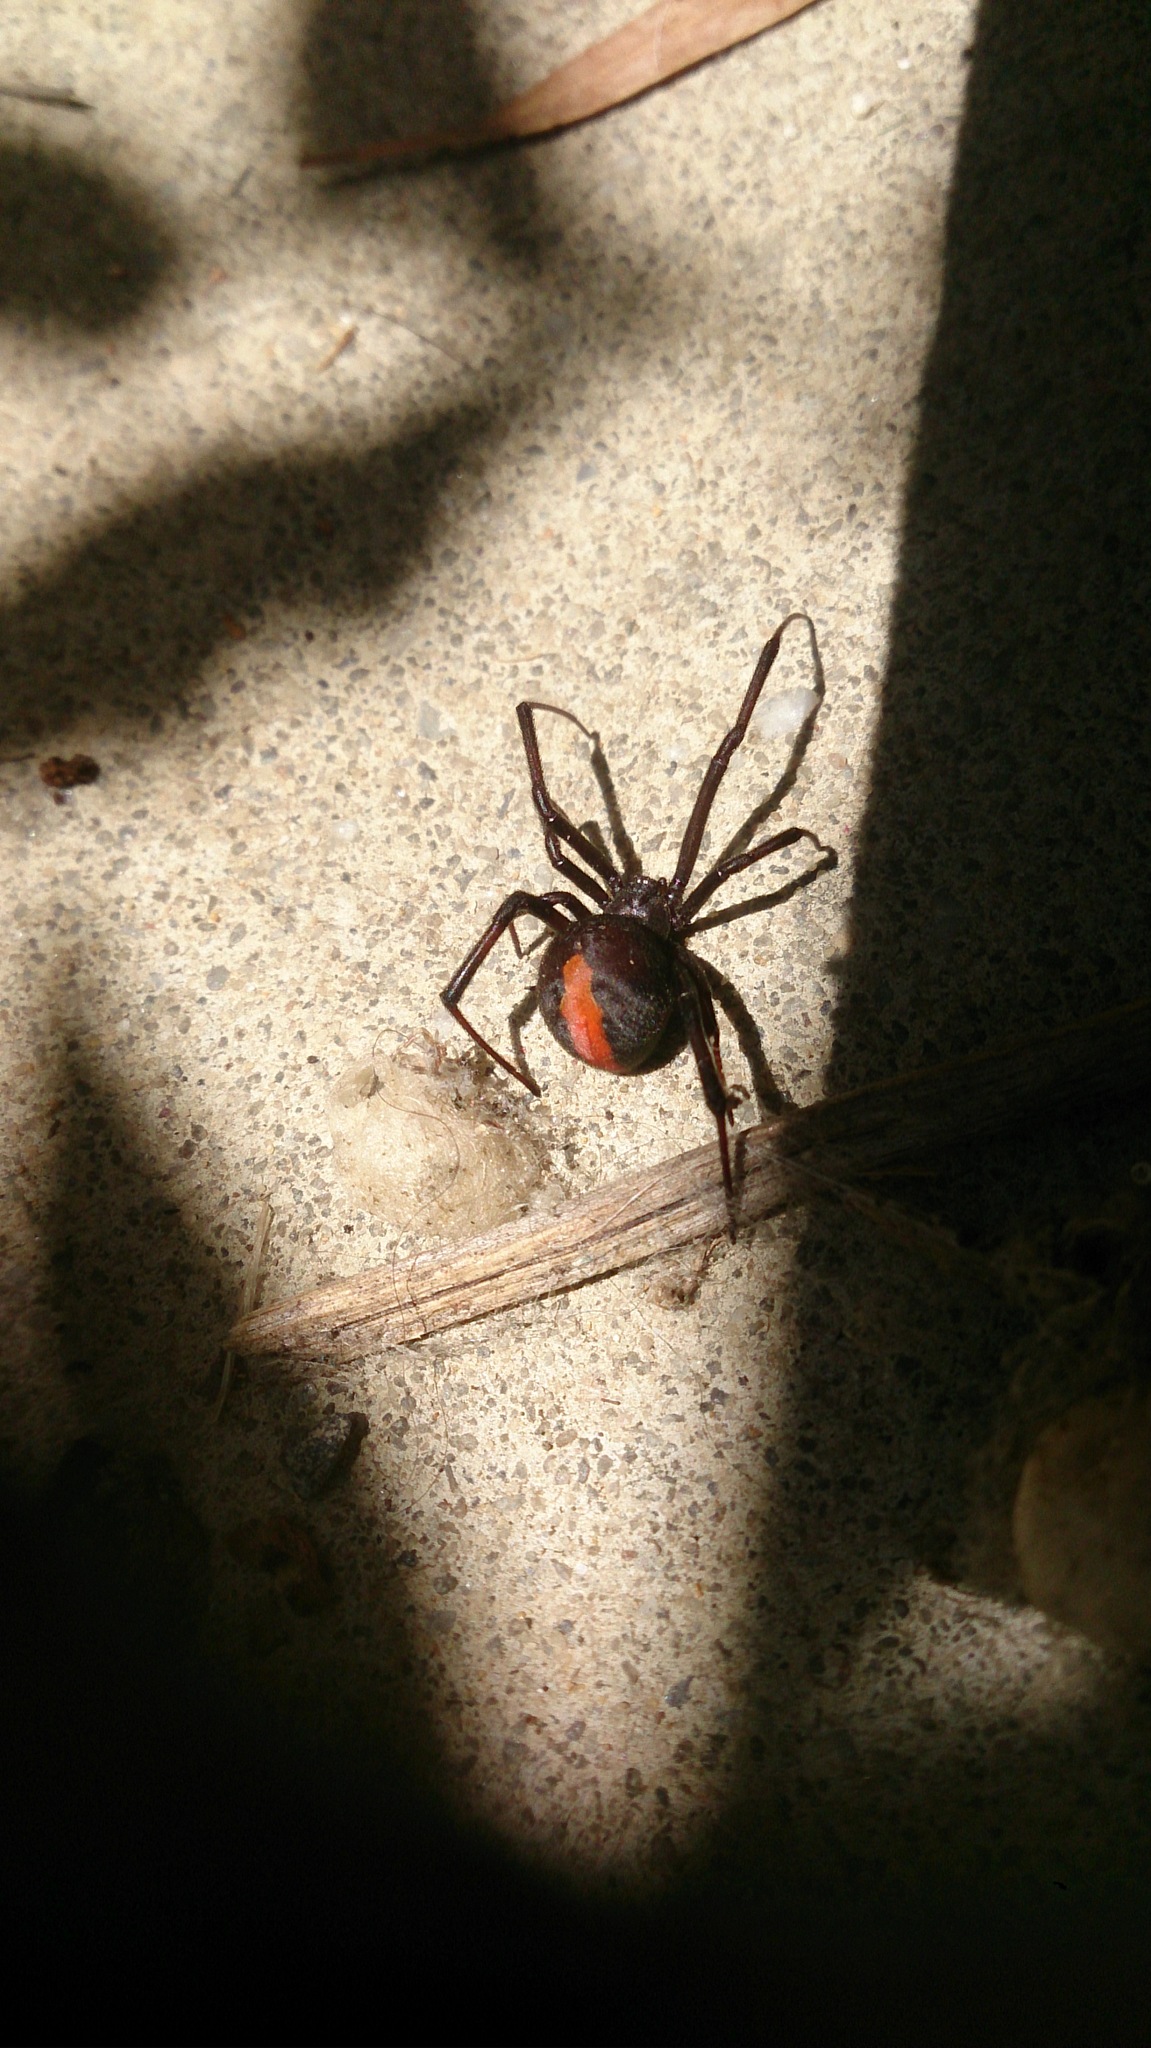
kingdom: Animalia
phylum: Arthropoda
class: Arachnida
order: Araneae
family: Theridiidae
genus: Latrodectus
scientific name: Latrodectus hasselti
